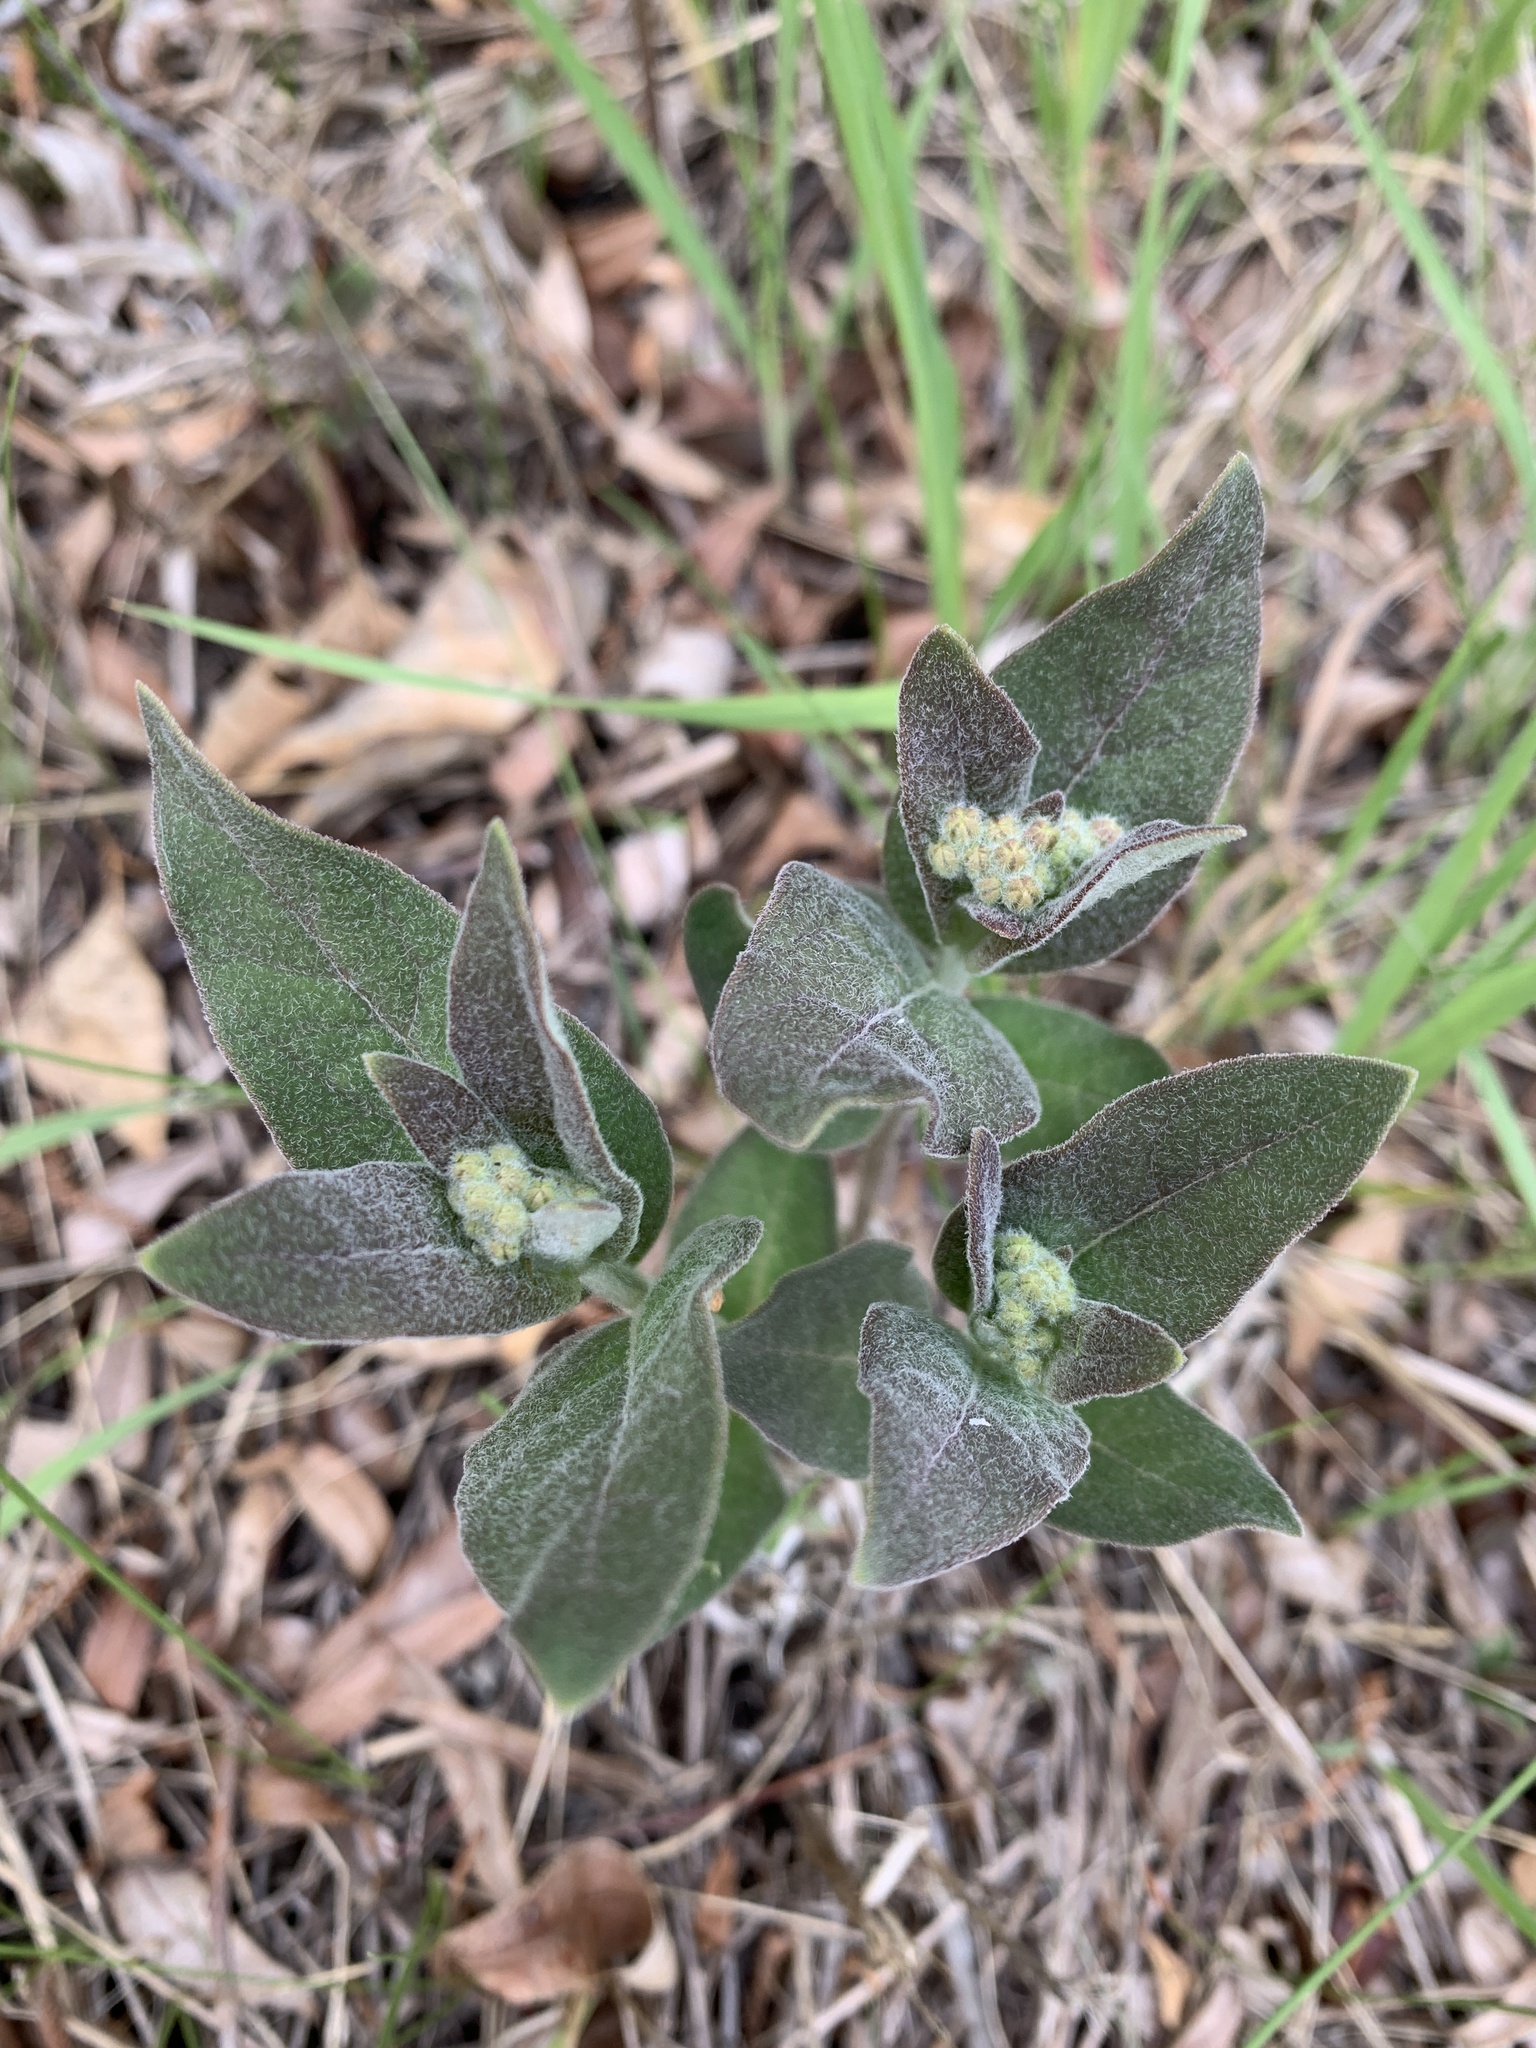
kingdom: Plantae
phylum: Tracheophyta
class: Magnoliopsida
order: Gentianales
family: Apocynaceae
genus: Asclepias
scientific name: Asclepias ovalifolia
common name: Dwarf milkweed
